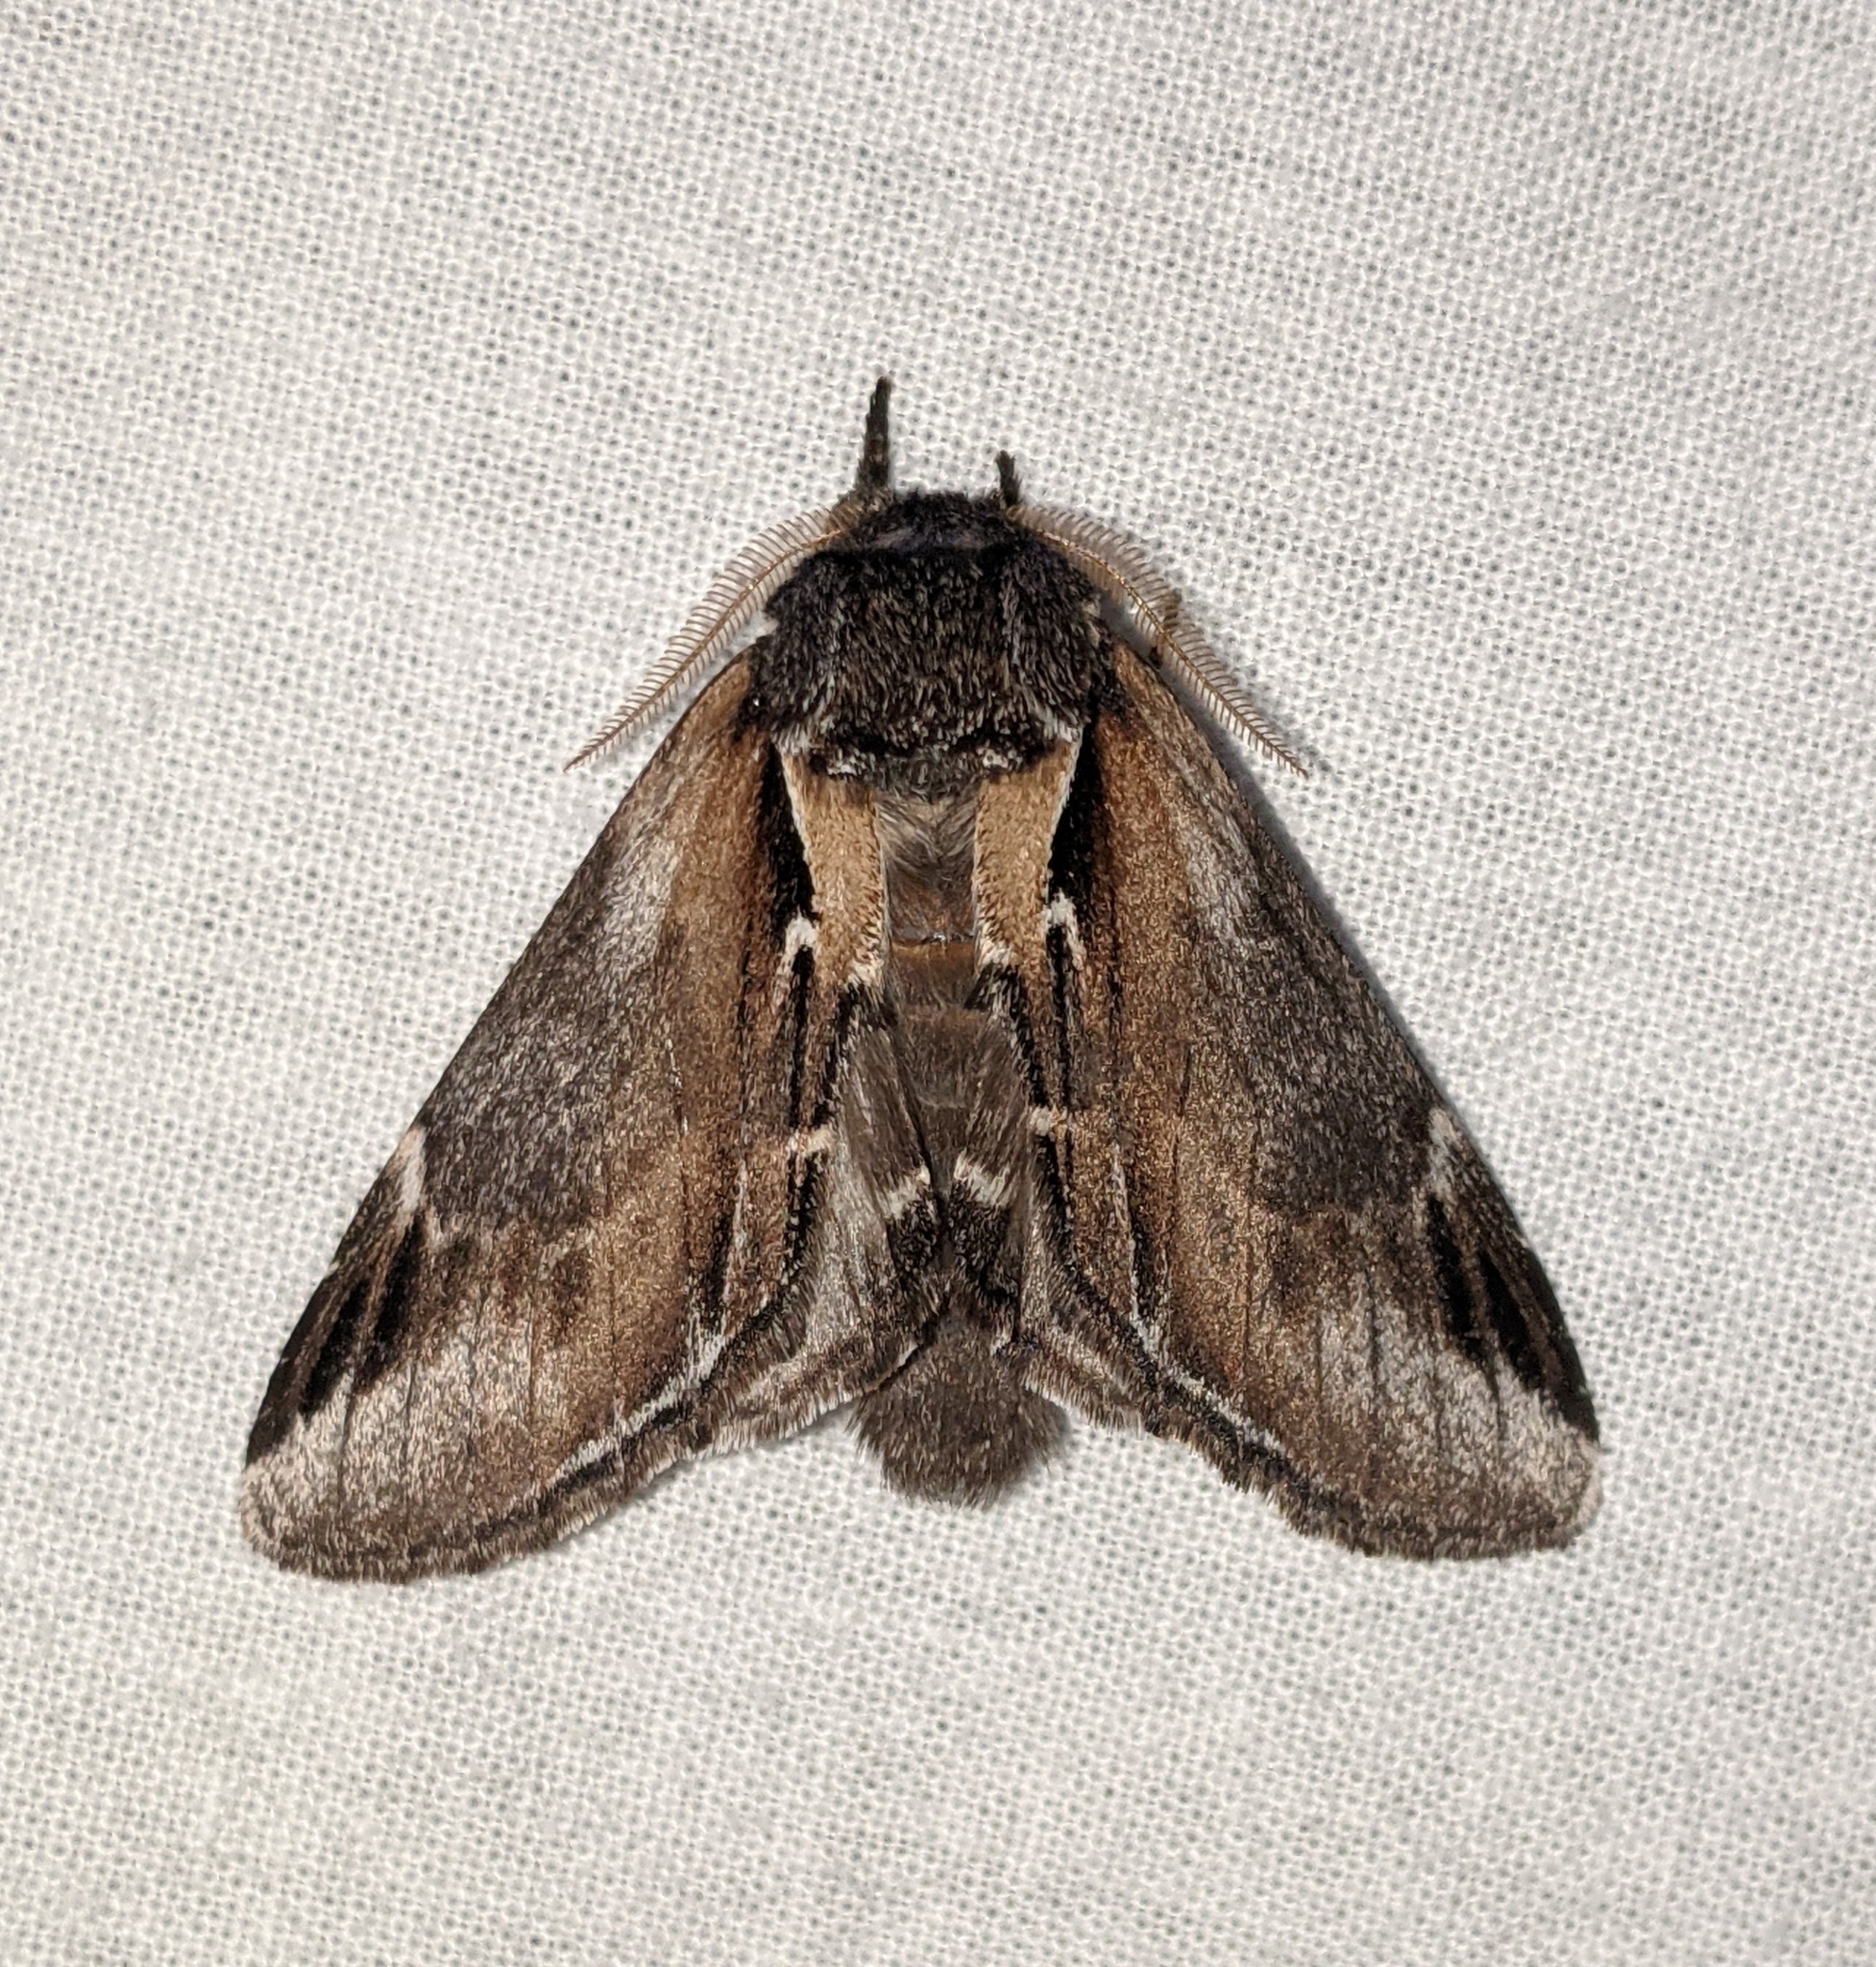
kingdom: Animalia
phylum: Arthropoda
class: Insecta
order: Lepidoptera
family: Notodontidae
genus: Pheosia
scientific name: Pheosia rimosa
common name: Black-rimmed prominent
